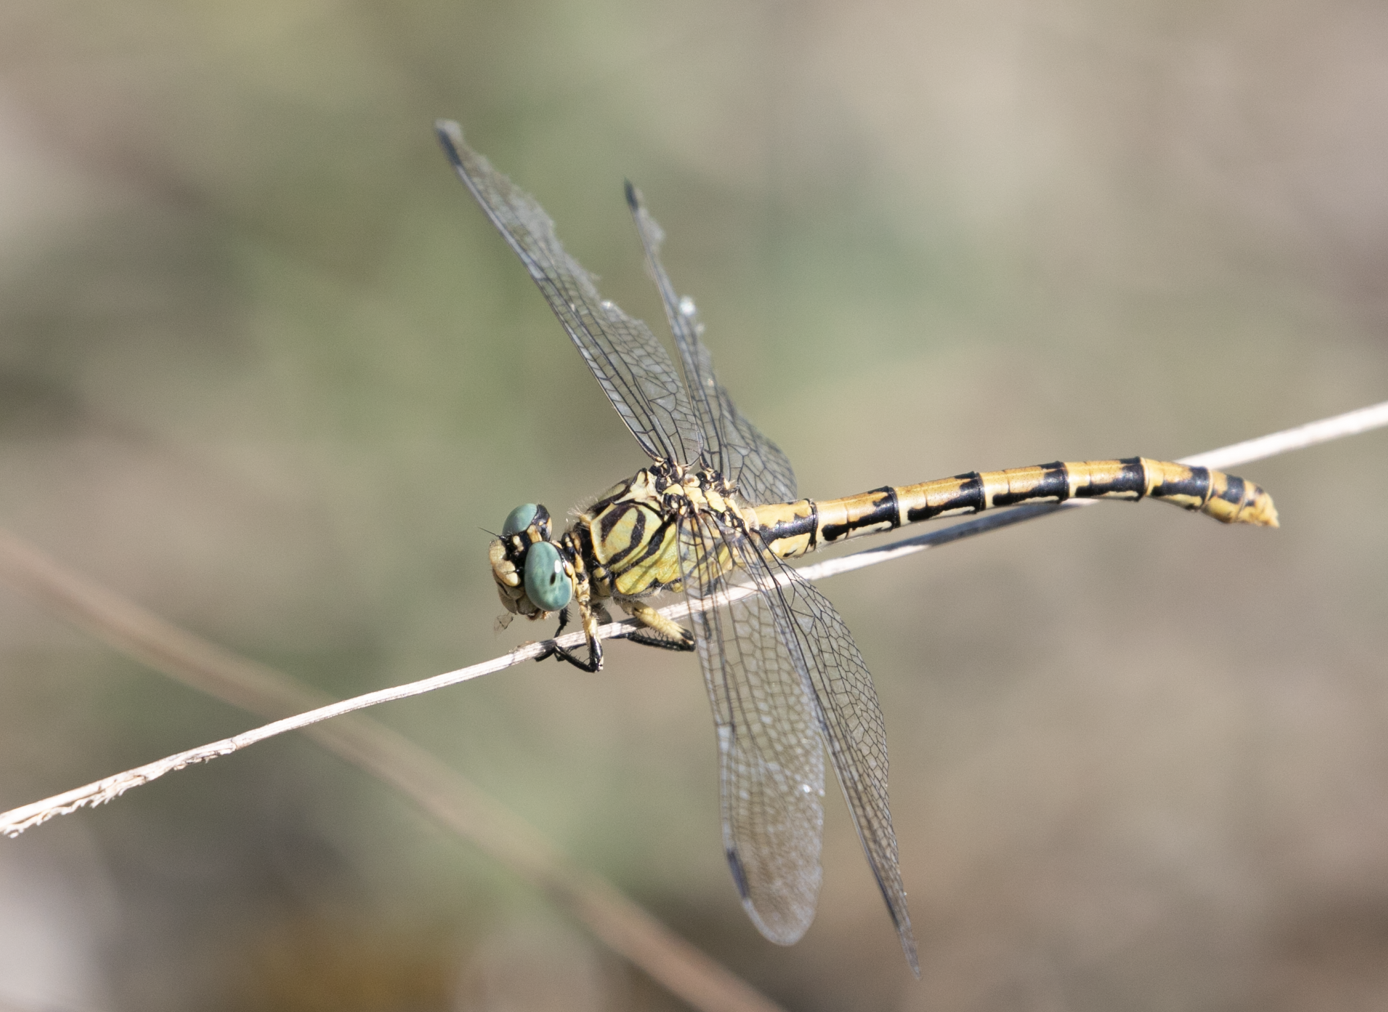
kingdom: Animalia
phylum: Arthropoda
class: Insecta
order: Odonata
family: Gomphidae
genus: Onychogomphus
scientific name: Onychogomphus forcipatus
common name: Small pincertail
